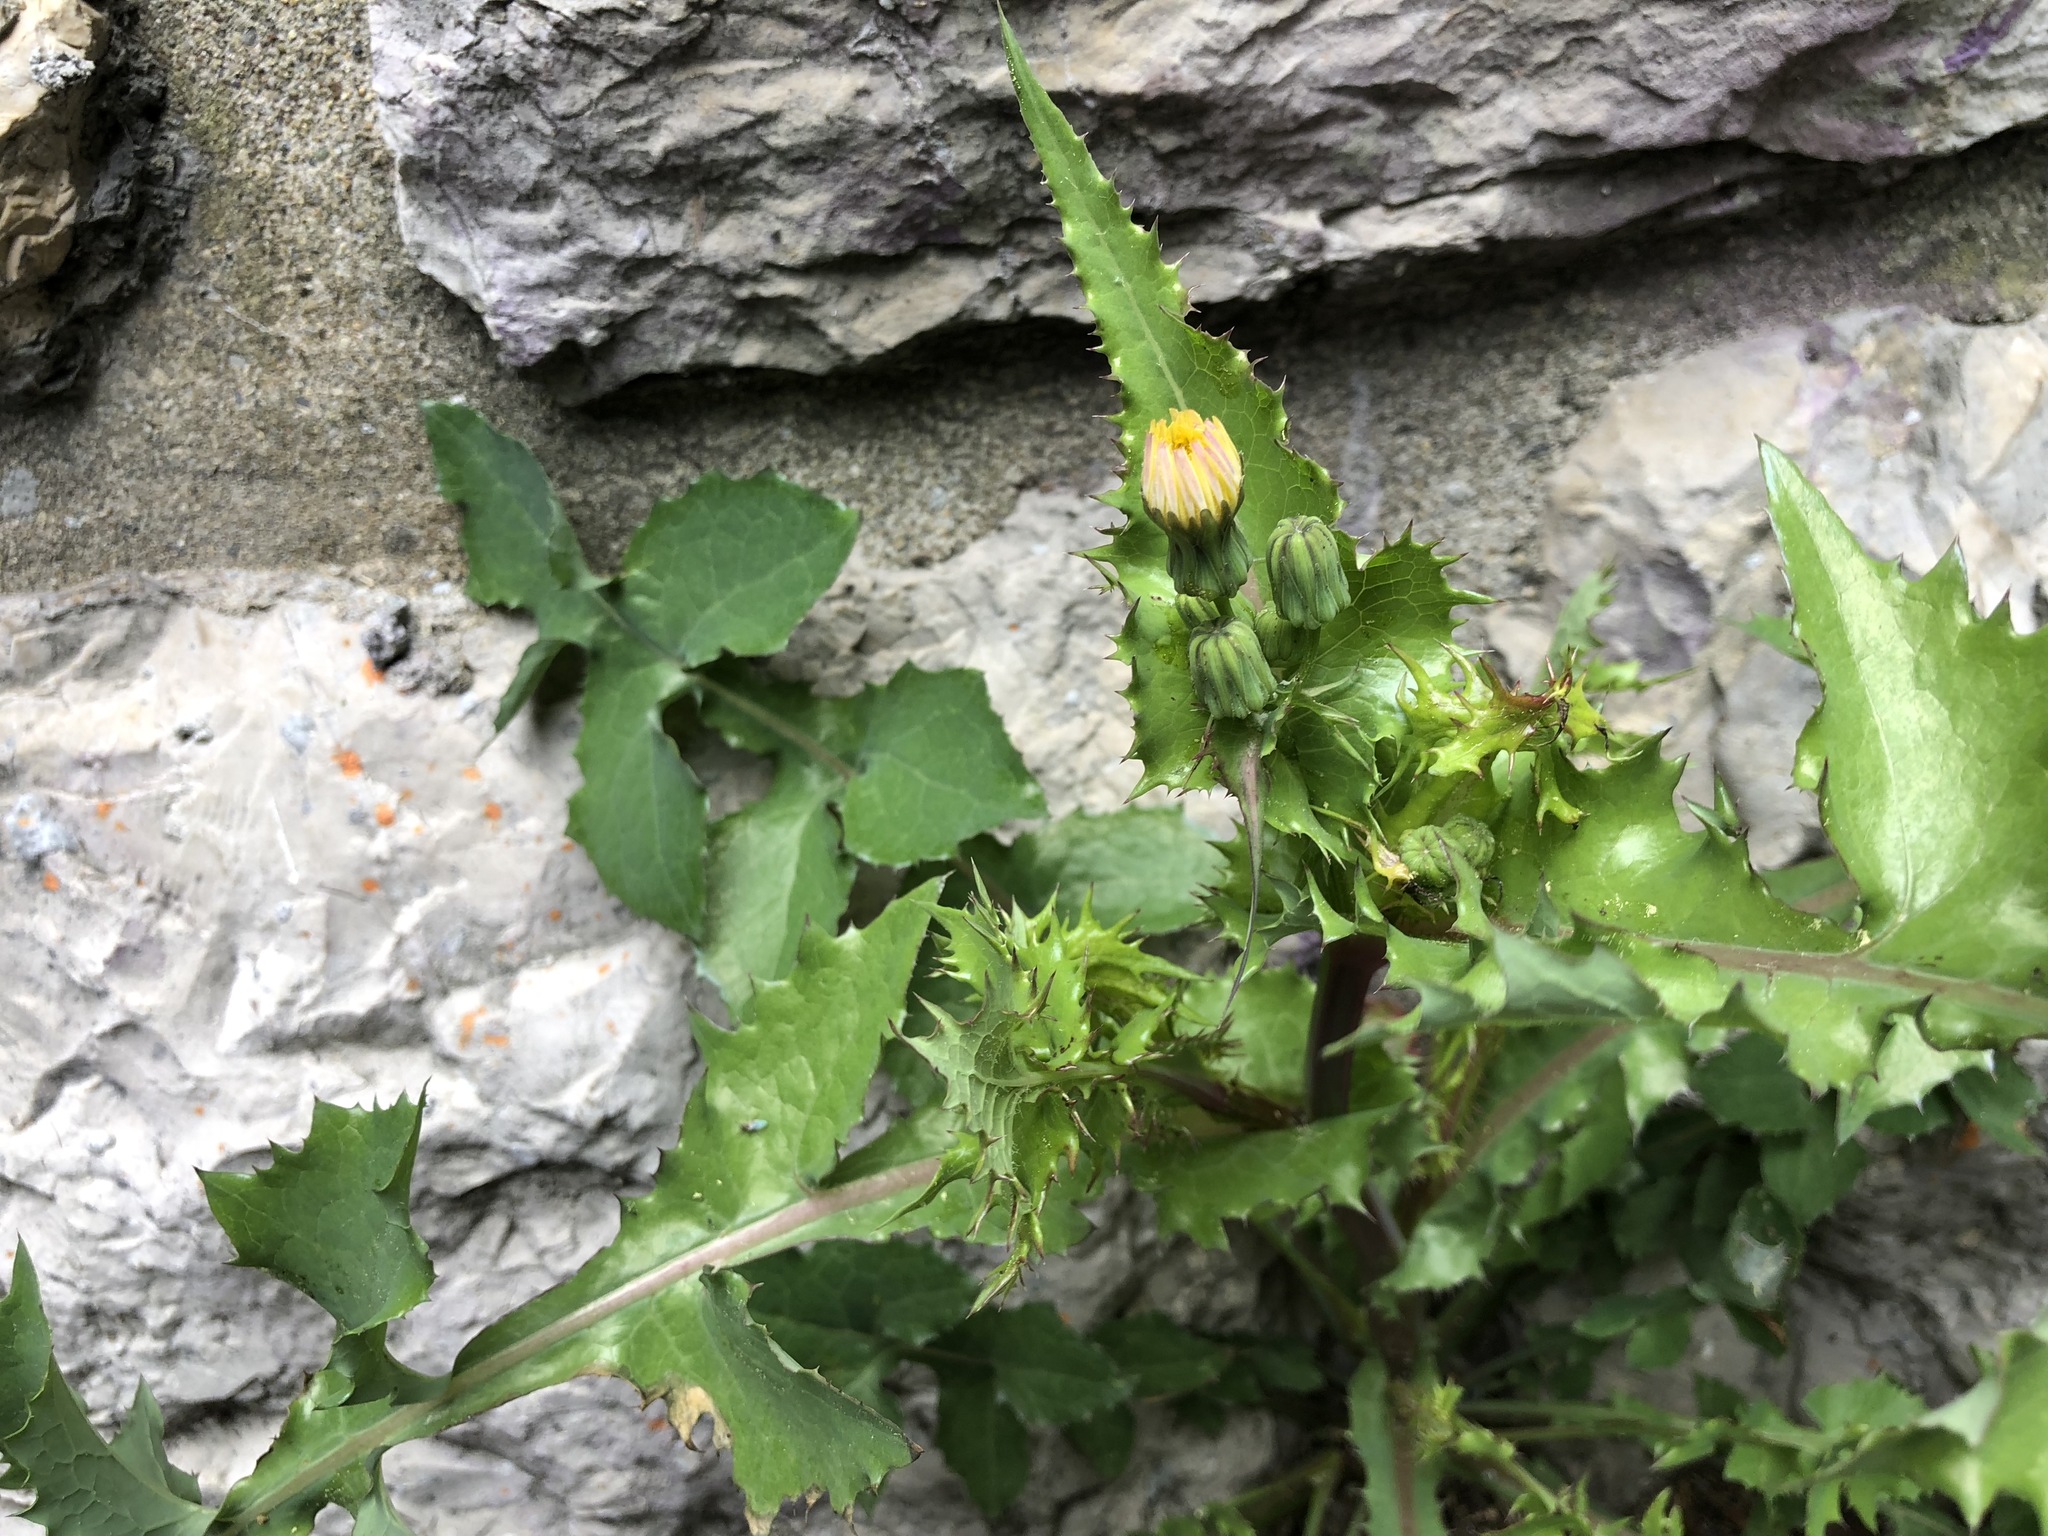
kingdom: Plantae
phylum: Tracheophyta
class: Magnoliopsida
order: Asterales
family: Asteraceae
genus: Sonchus
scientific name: Sonchus oleraceus
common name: Common sowthistle
